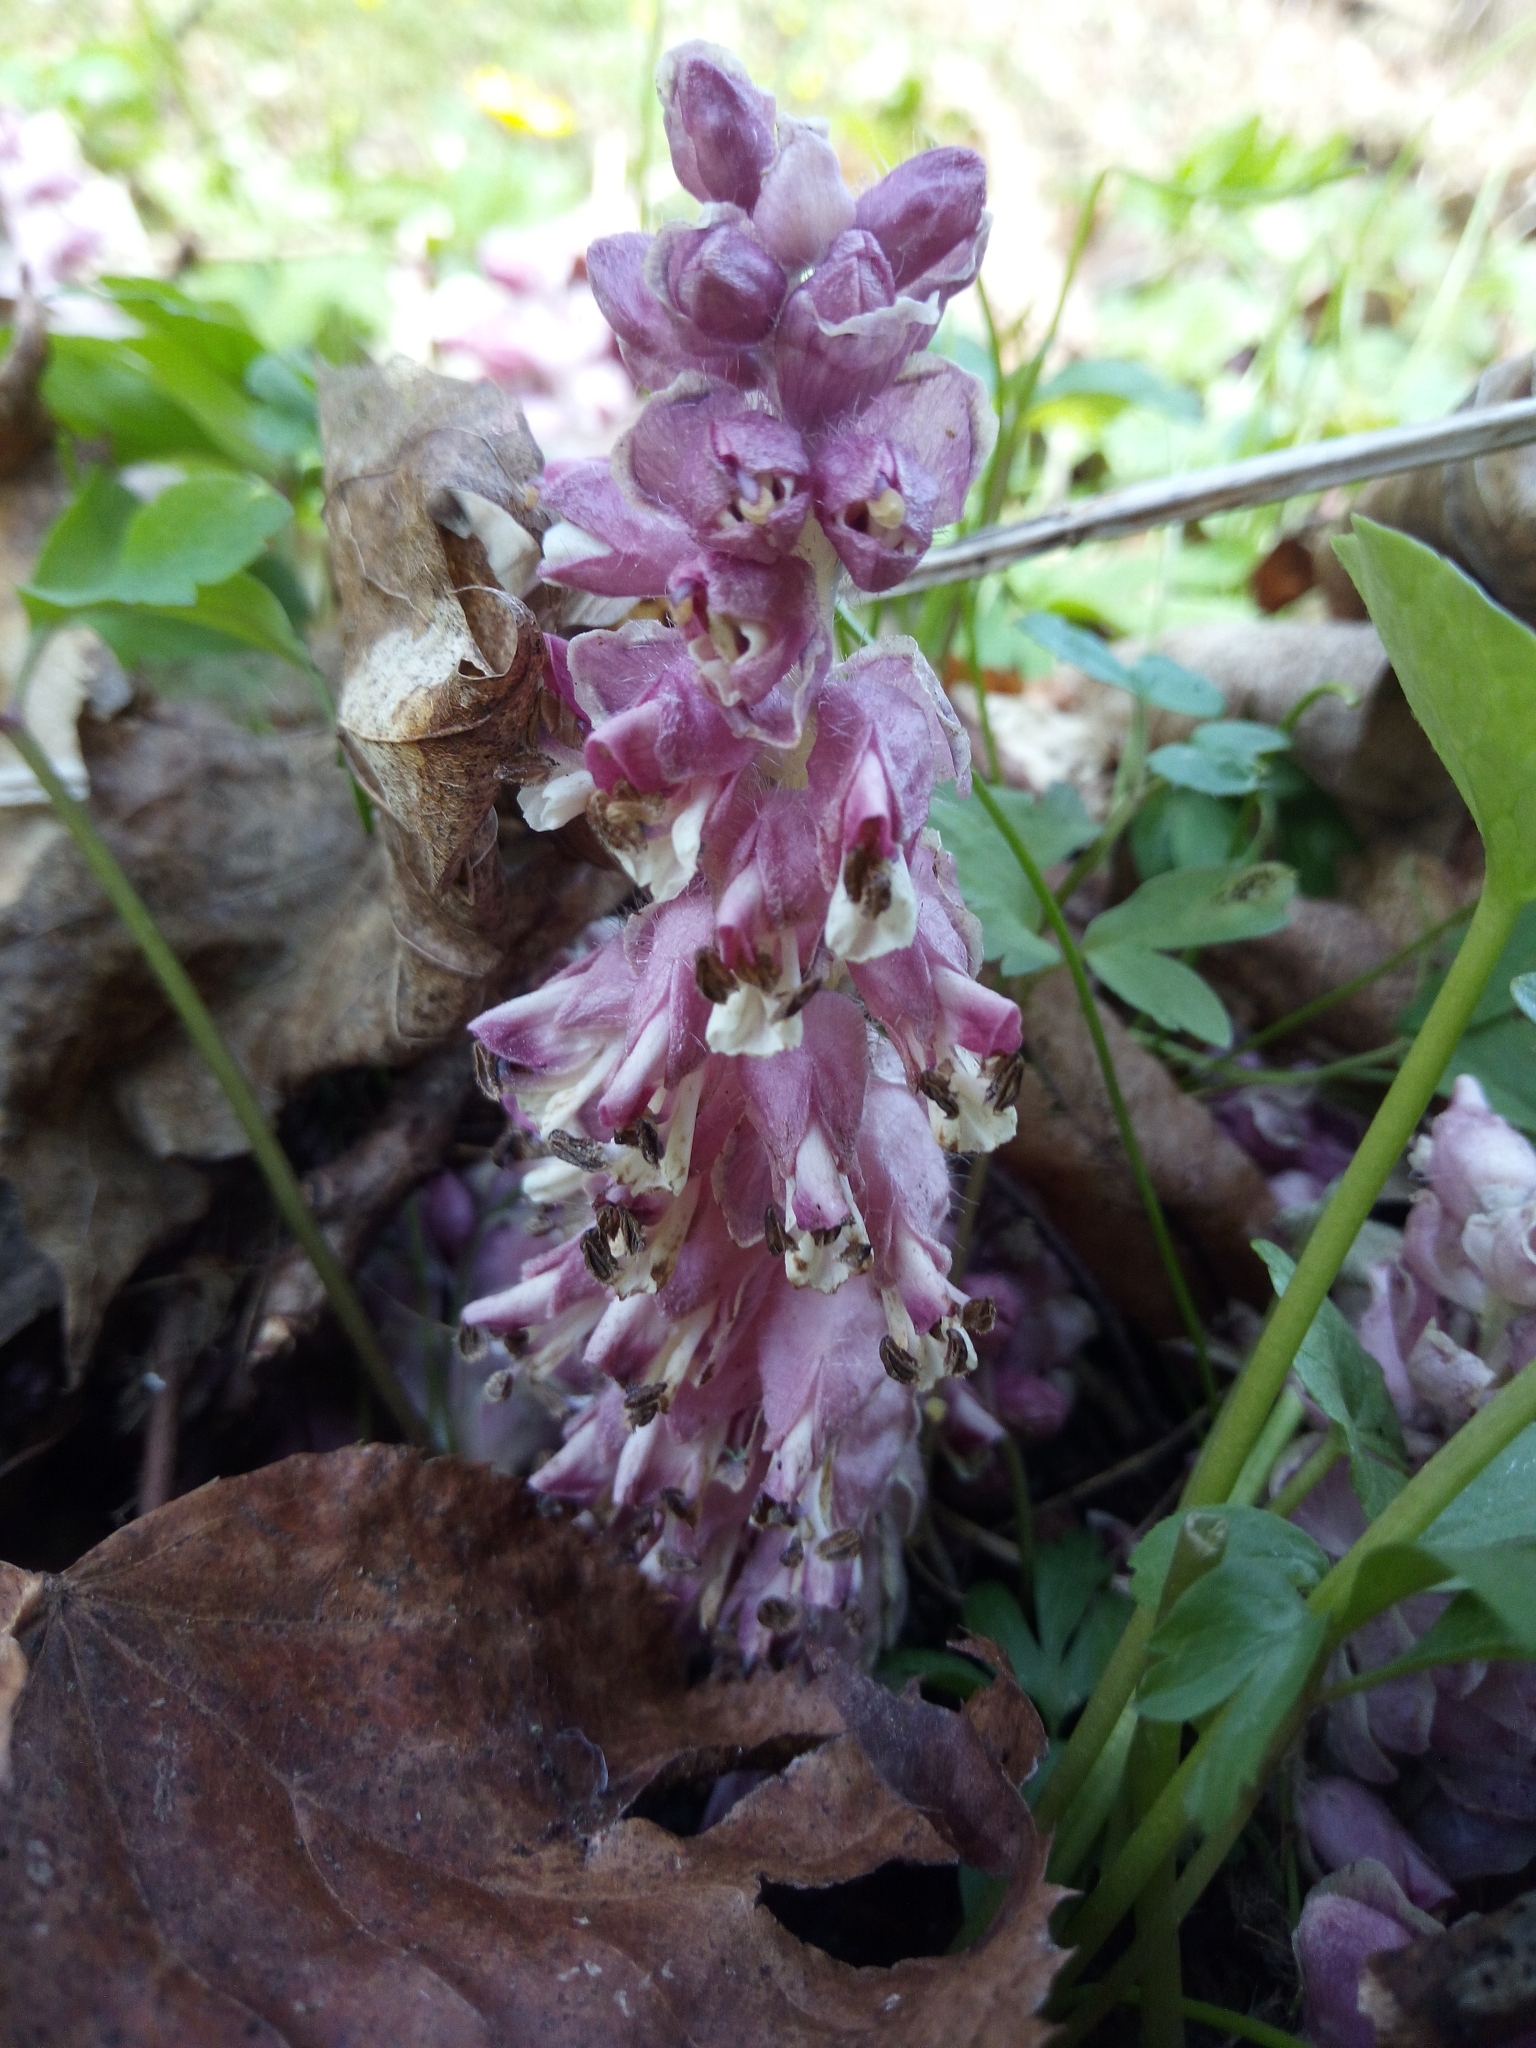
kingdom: Plantae
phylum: Tracheophyta
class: Magnoliopsida
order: Lamiales
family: Orobanchaceae
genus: Lathraea
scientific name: Lathraea squamaria
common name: Toothwort
